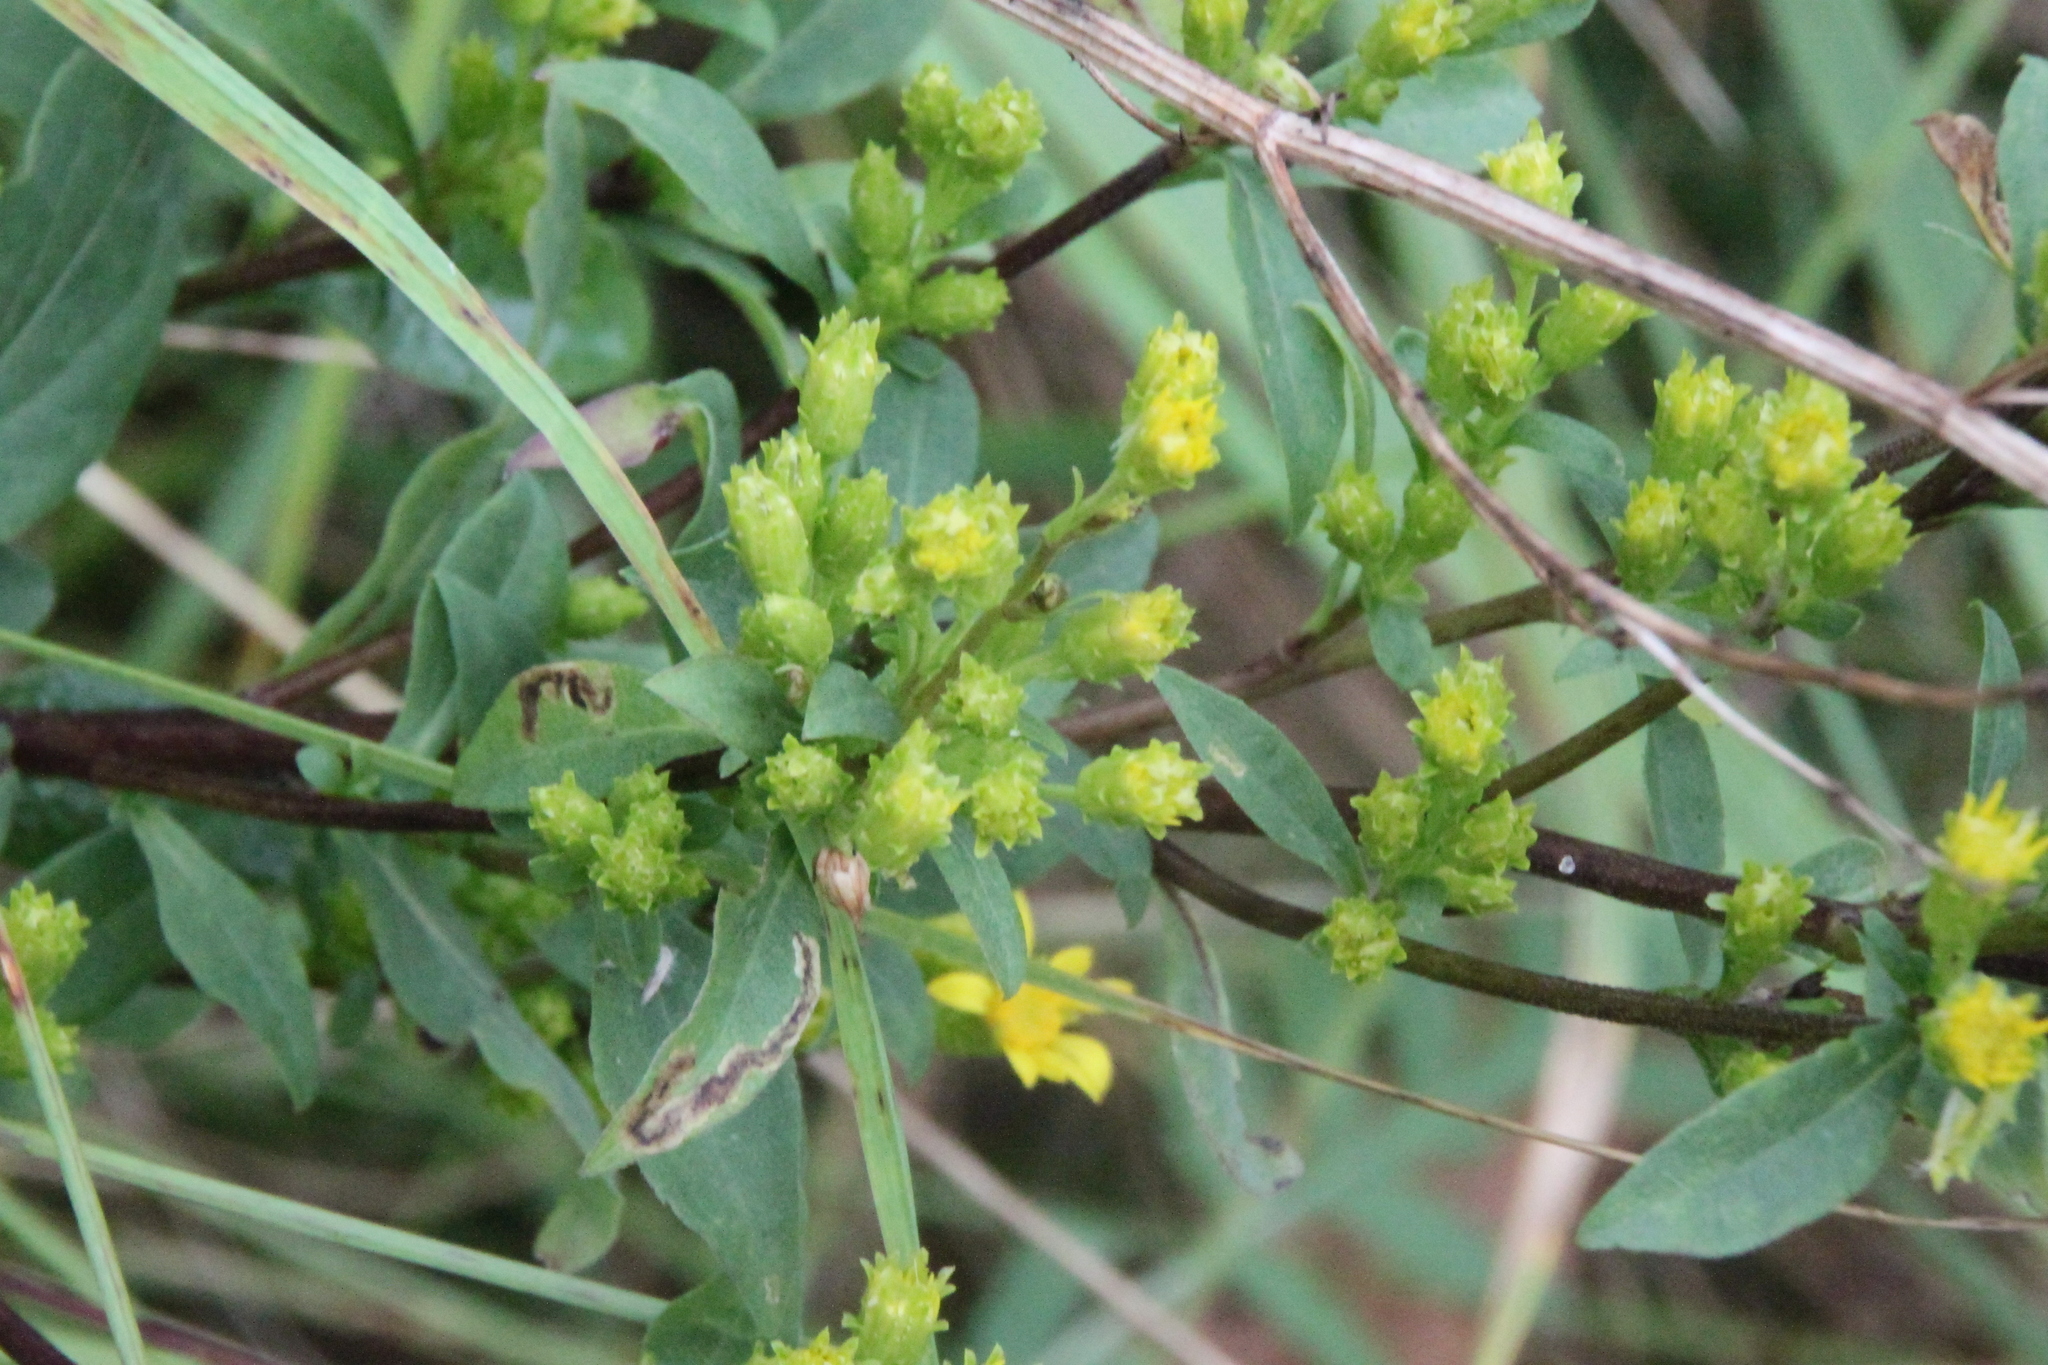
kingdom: Plantae
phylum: Tracheophyta
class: Magnoliopsida
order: Asterales
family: Asteraceae
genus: Solidago
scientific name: Solidago virgaurea
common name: Goldenrod
